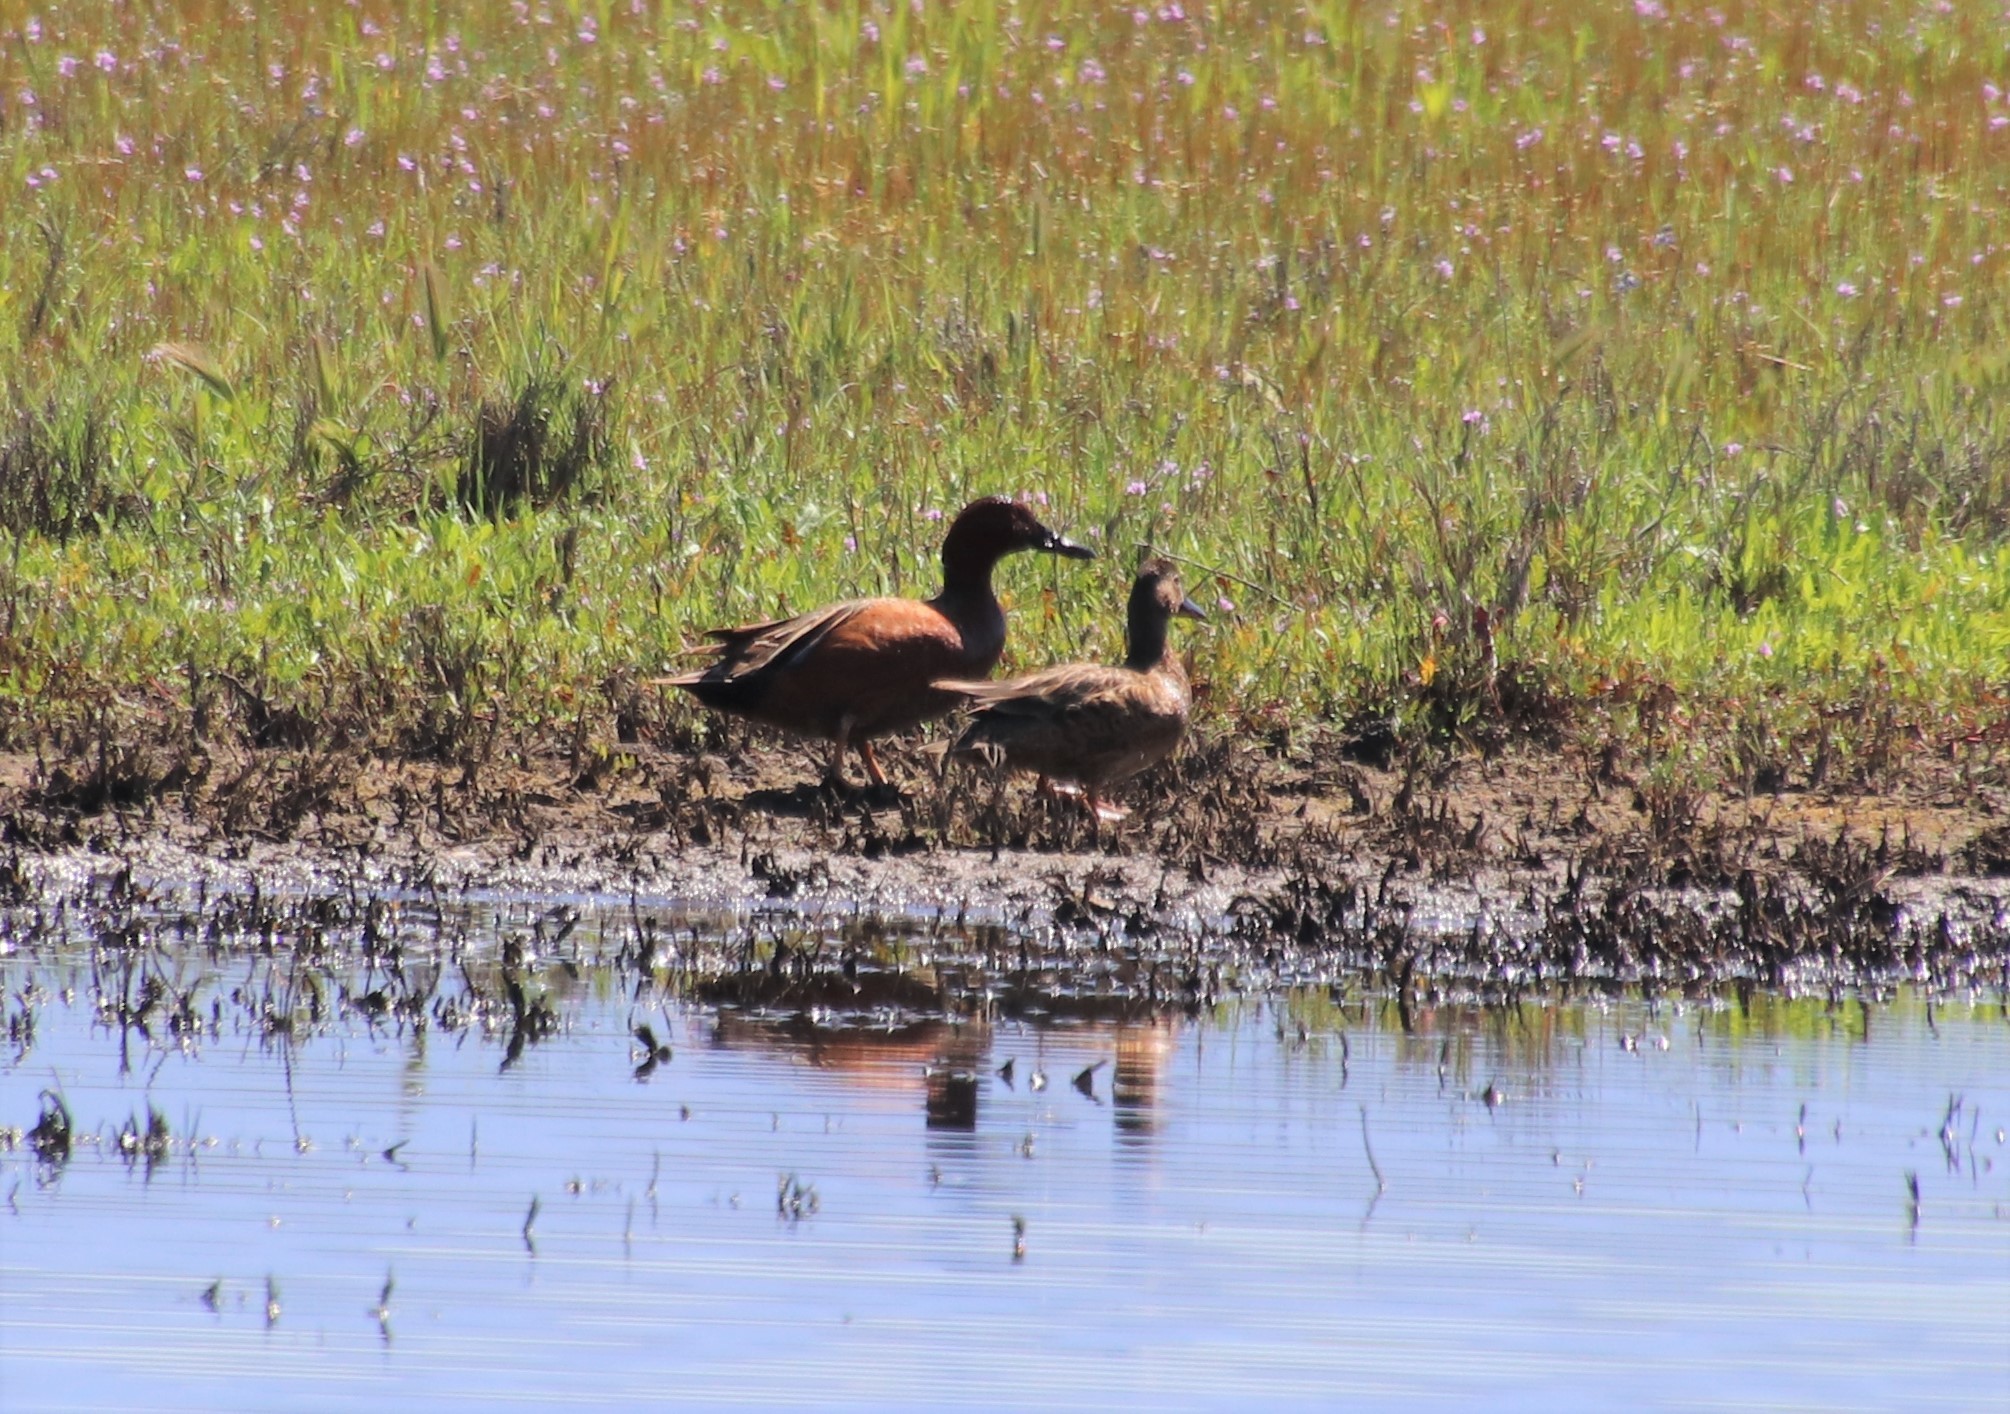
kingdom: Animalia
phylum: Chordata
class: Aves
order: Anseriformes
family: Anatidae
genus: Spatula
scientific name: Spatula cyanoptera
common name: Cinnamon teal
